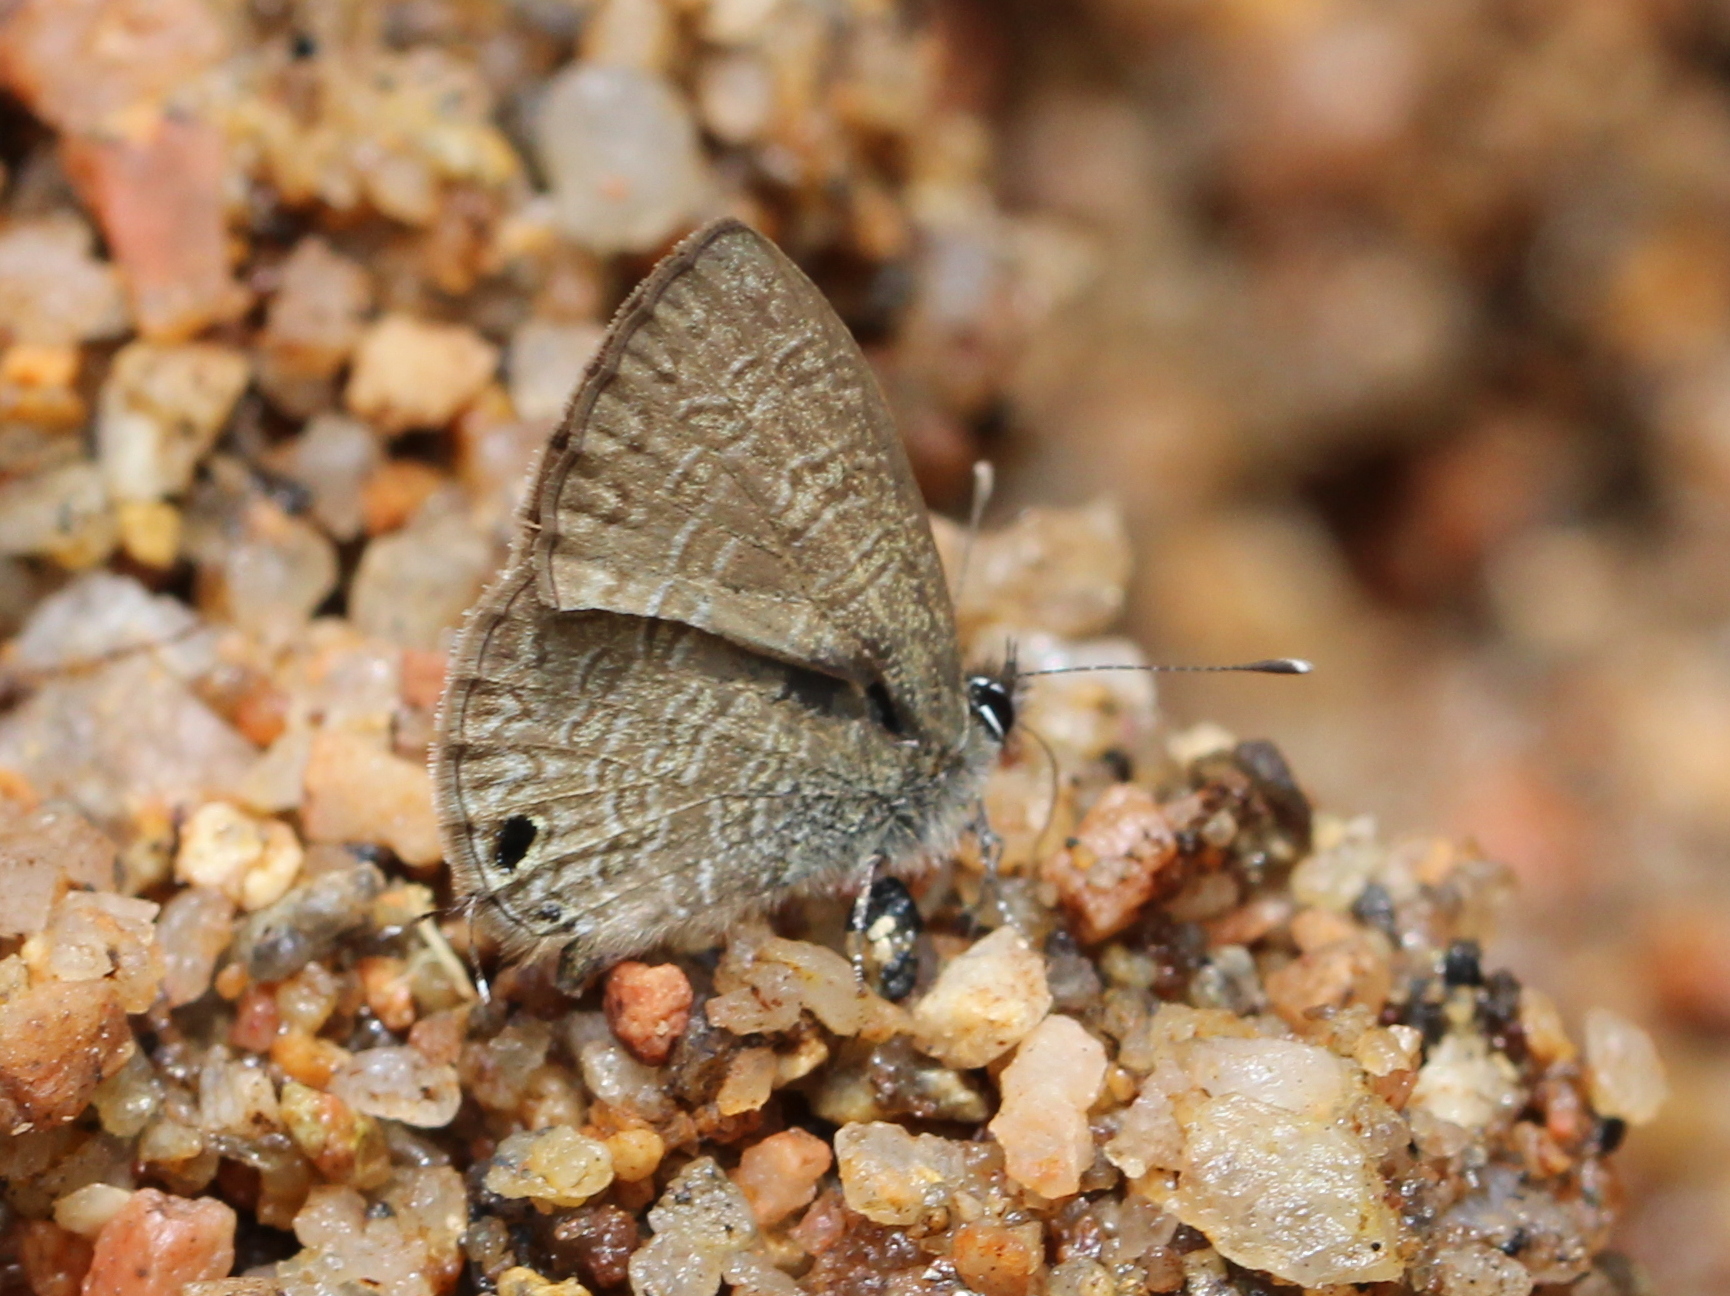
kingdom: Animalia
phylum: Arthropoda
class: Insecta
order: Lepidoptera
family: Lycaenidae
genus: Prosotas
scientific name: Prosotas nora
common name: Common line blue
